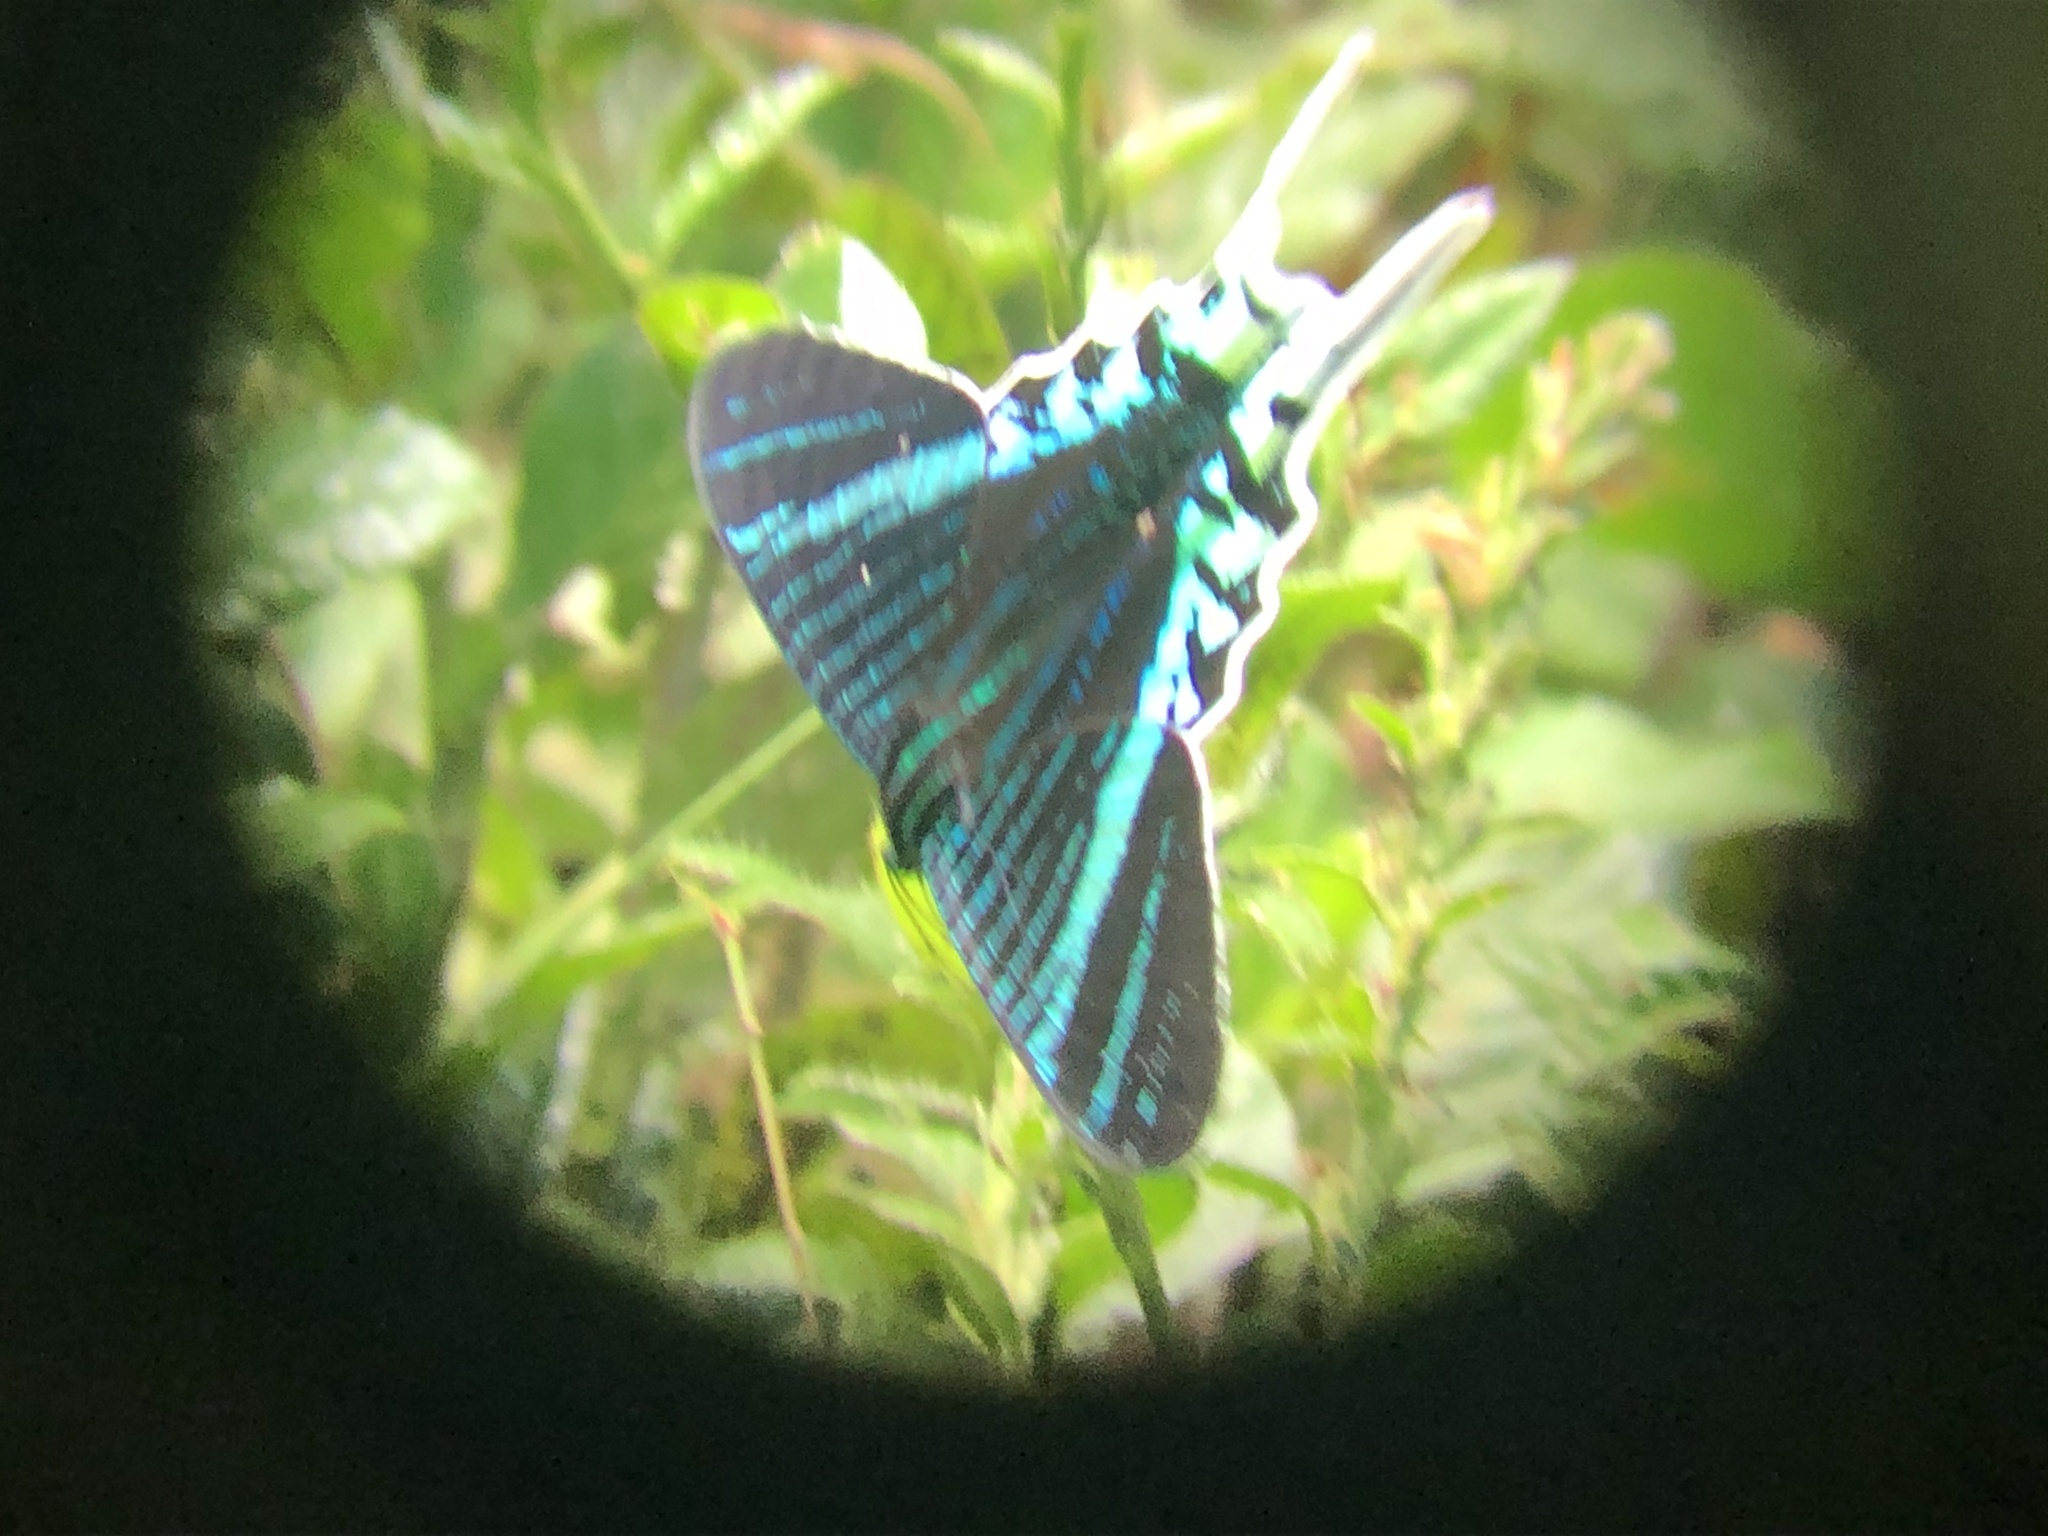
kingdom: Animalia
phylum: Arthropoda
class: Insecta
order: Lepidoptera
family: Uraniidae
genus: Urania
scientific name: Urania leilus
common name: Peacock moth
